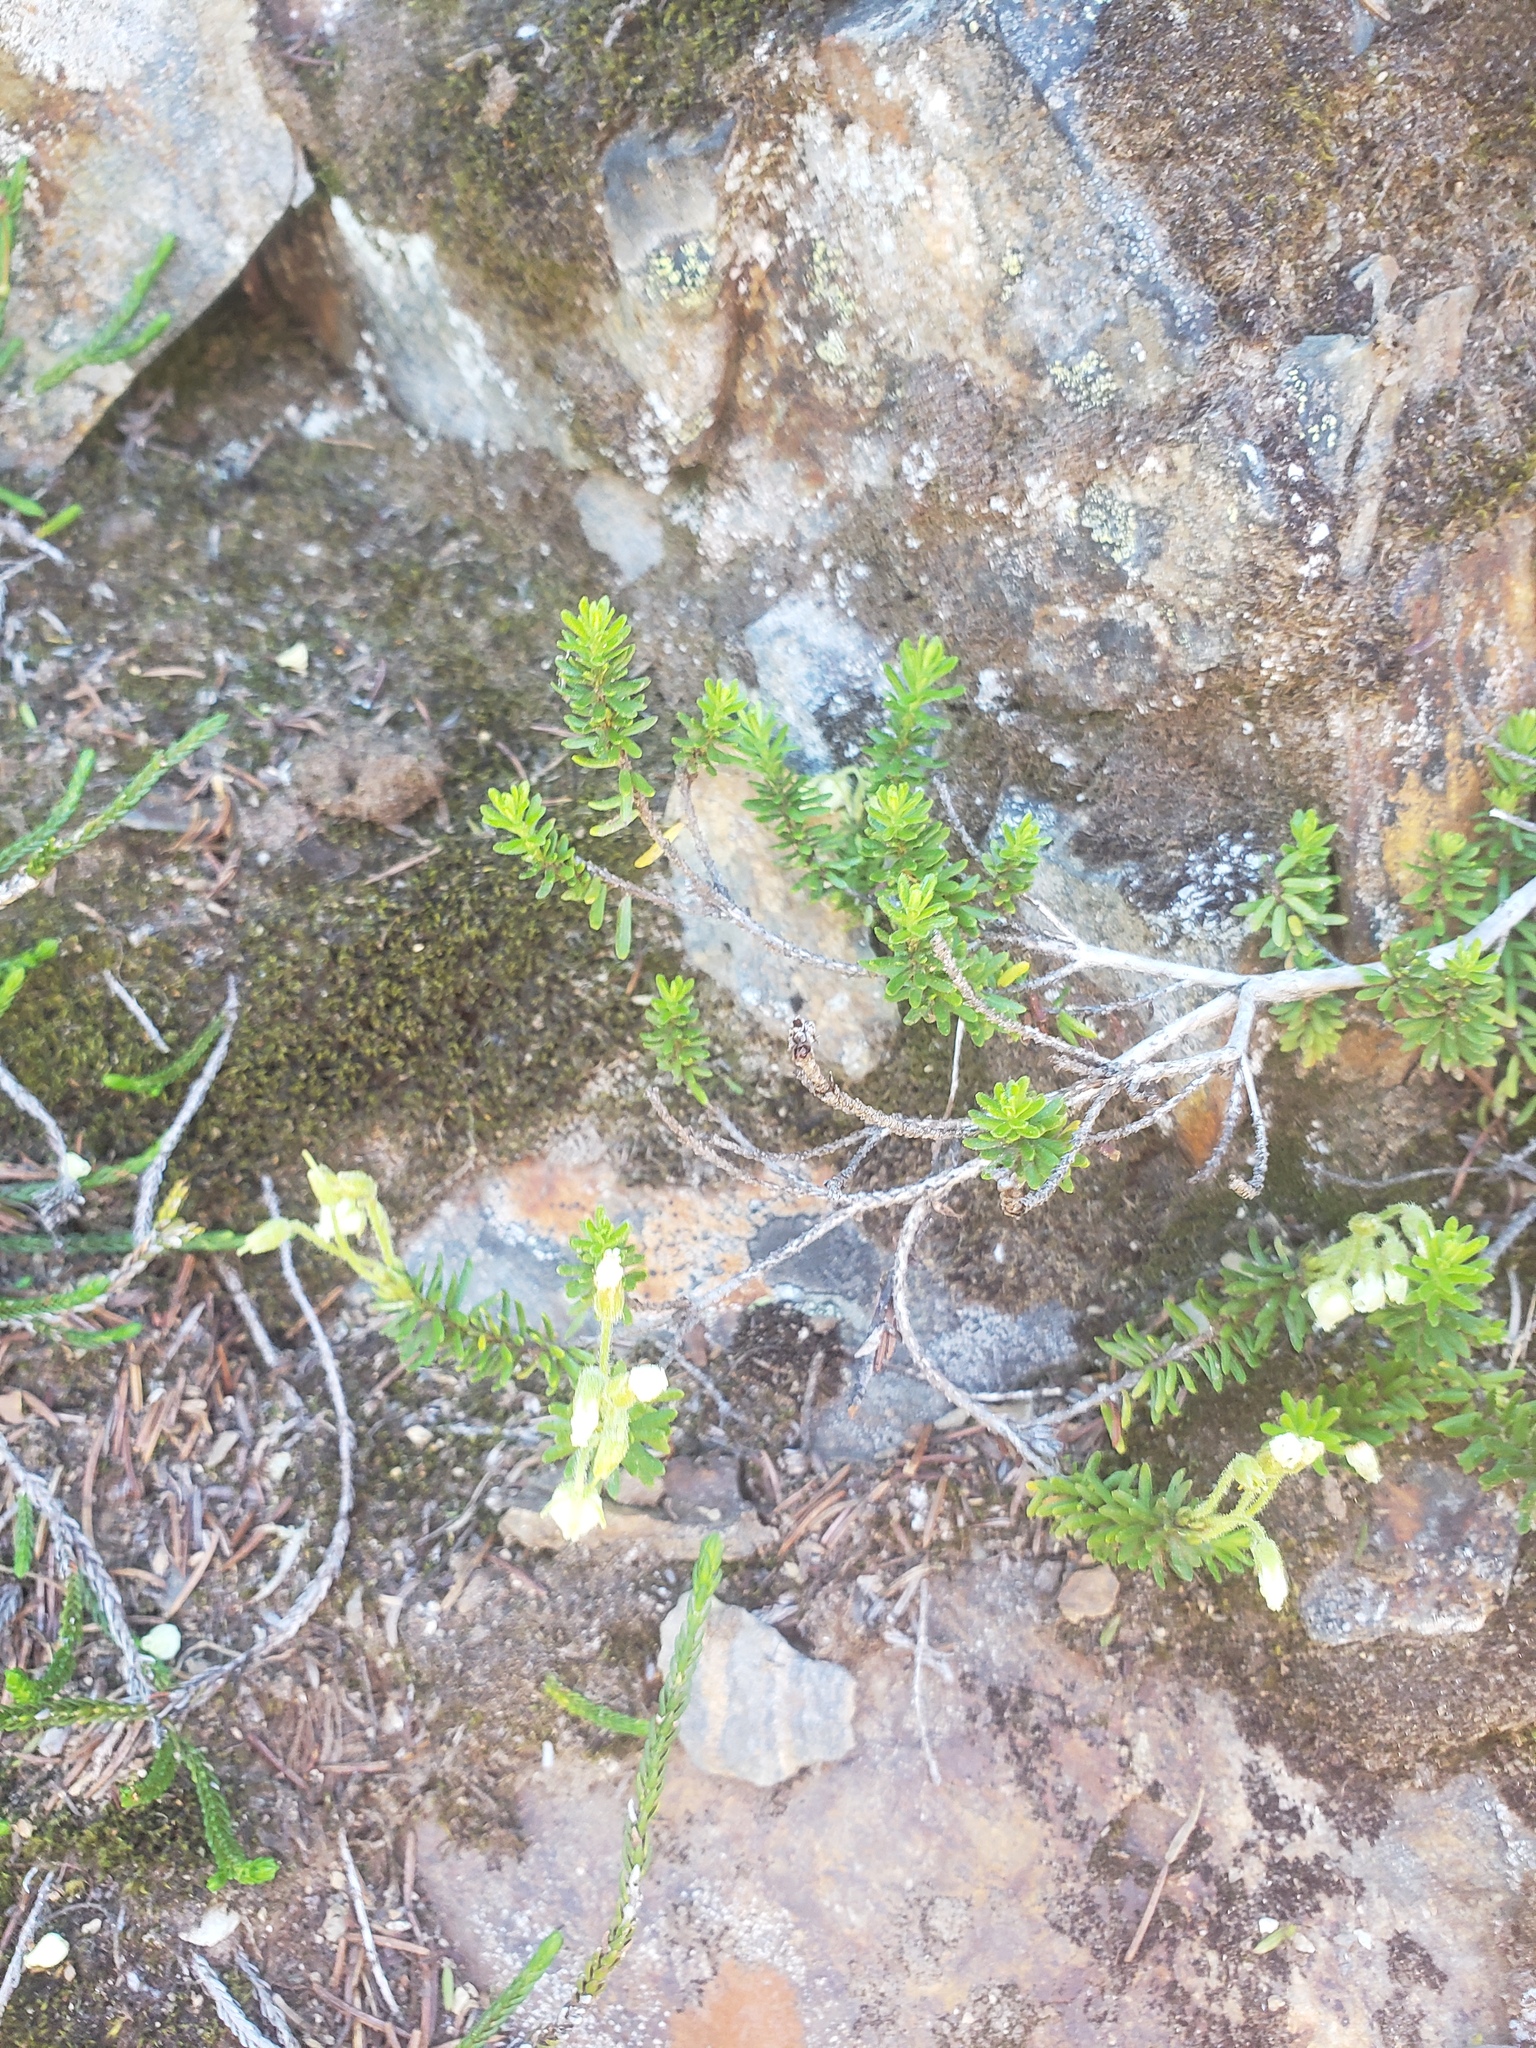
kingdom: Plantae
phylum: Tracheophyta
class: Magnoliopsida
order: Ericales
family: Ericaceae
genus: Phyllodoce
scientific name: Phyllodoce glanduliflora
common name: Cream mountain heather
